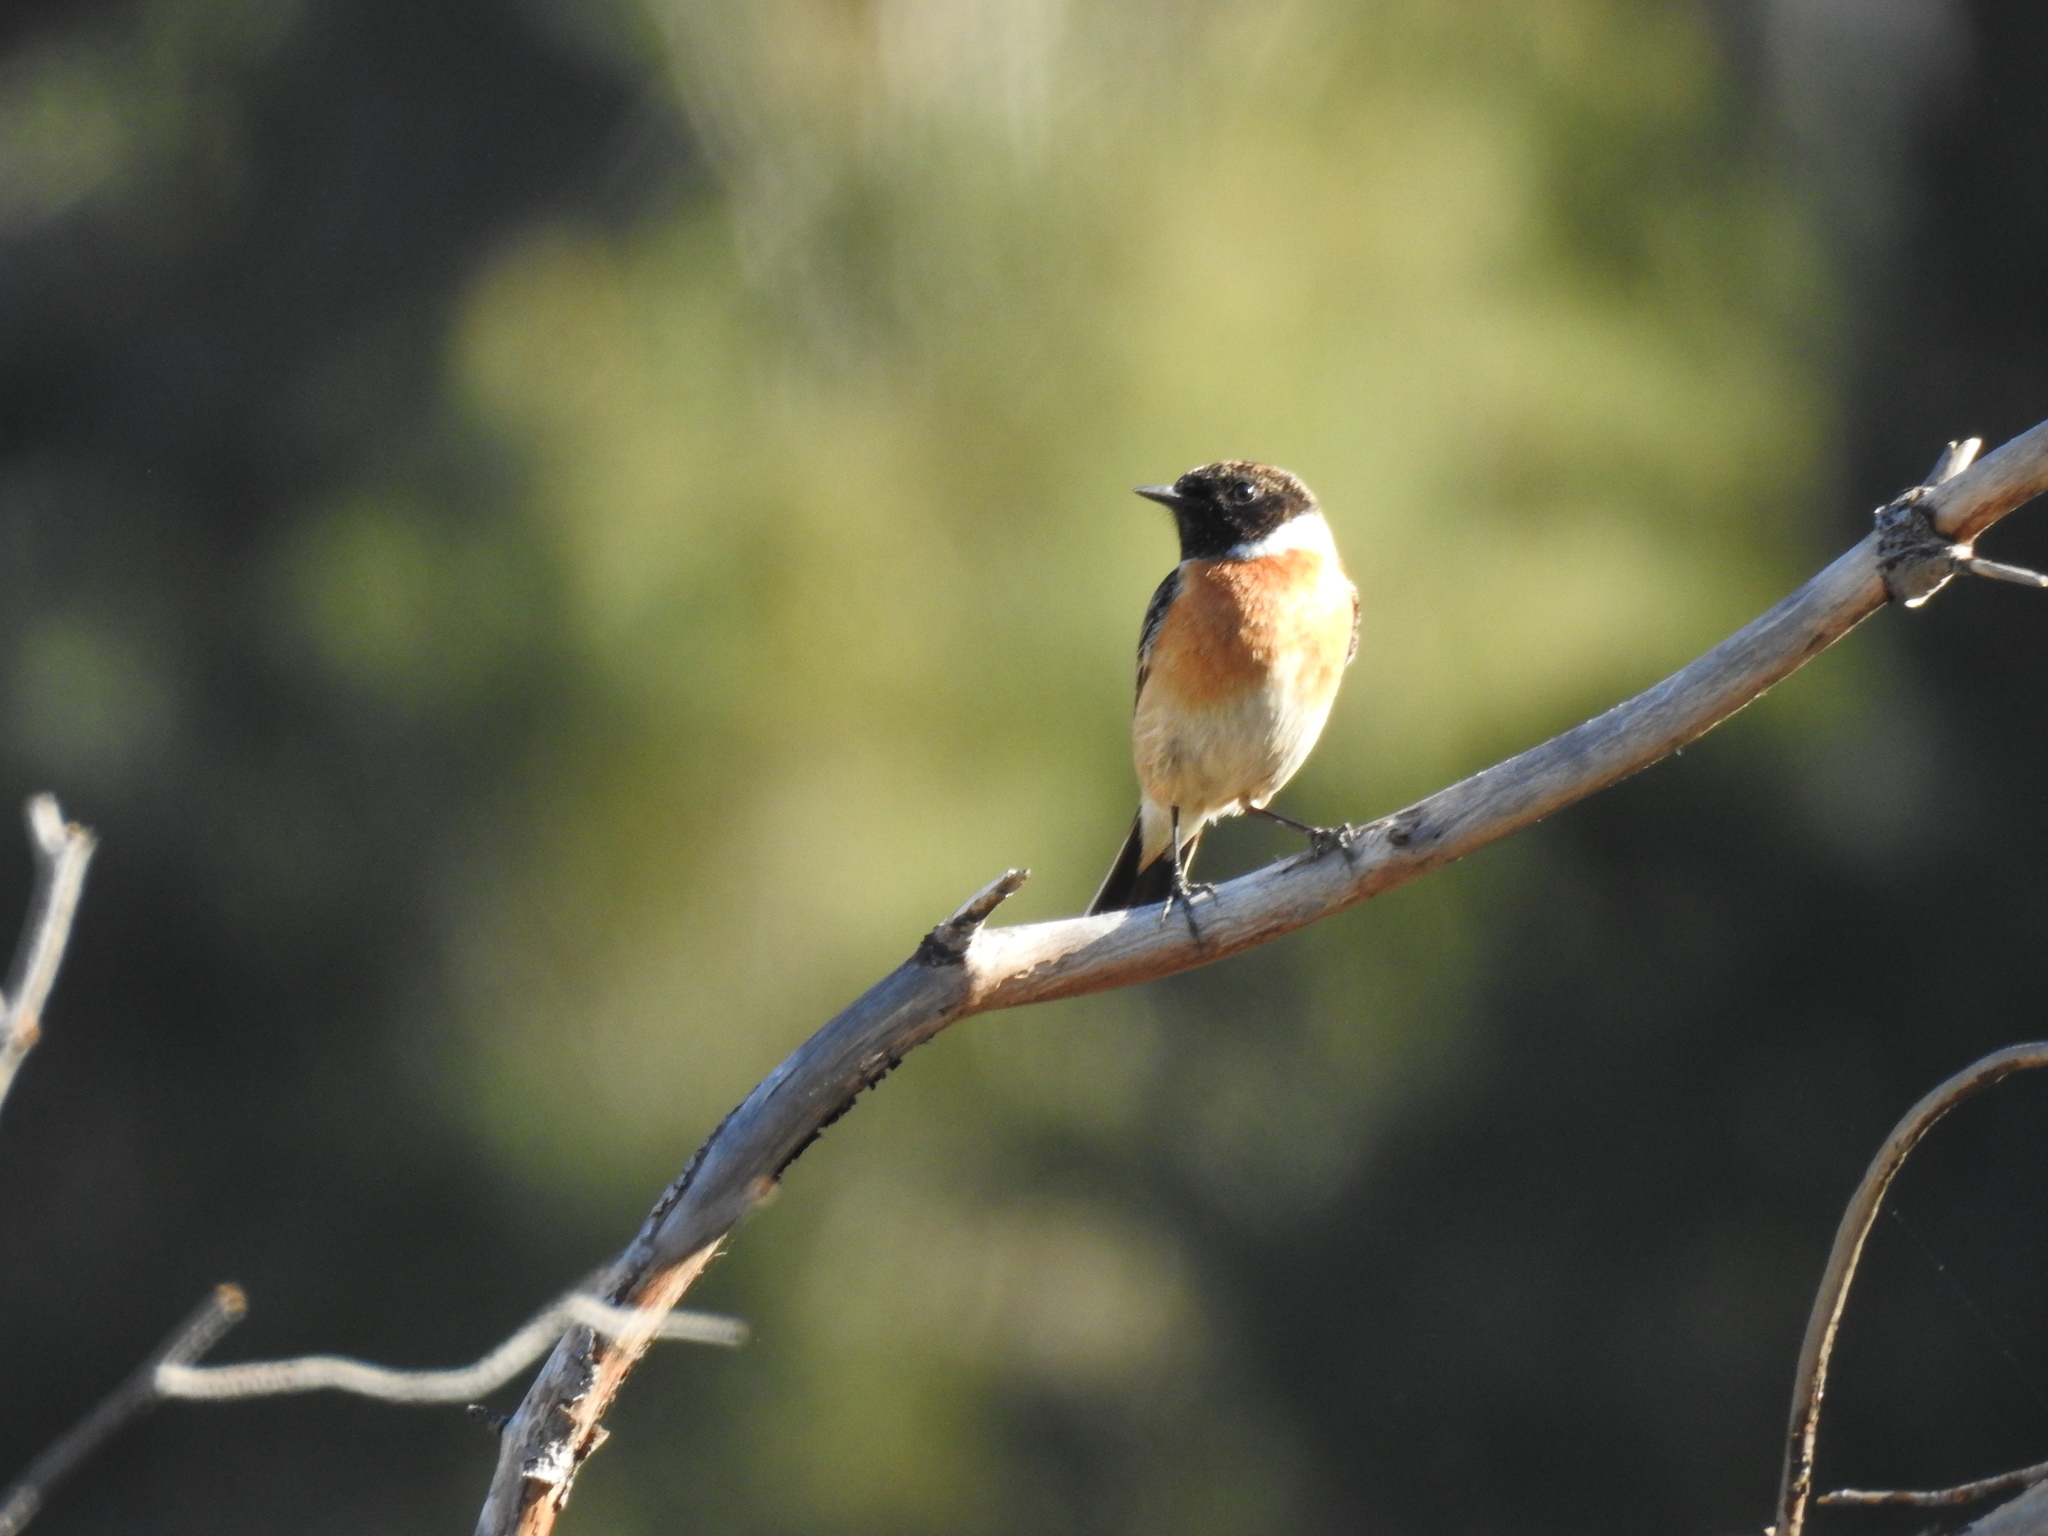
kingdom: Animalia
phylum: Chordata
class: Aves
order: Passeriformes
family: Muscicapidae
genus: Saxicola
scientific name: Saxicola rubicola
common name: European stonechat
